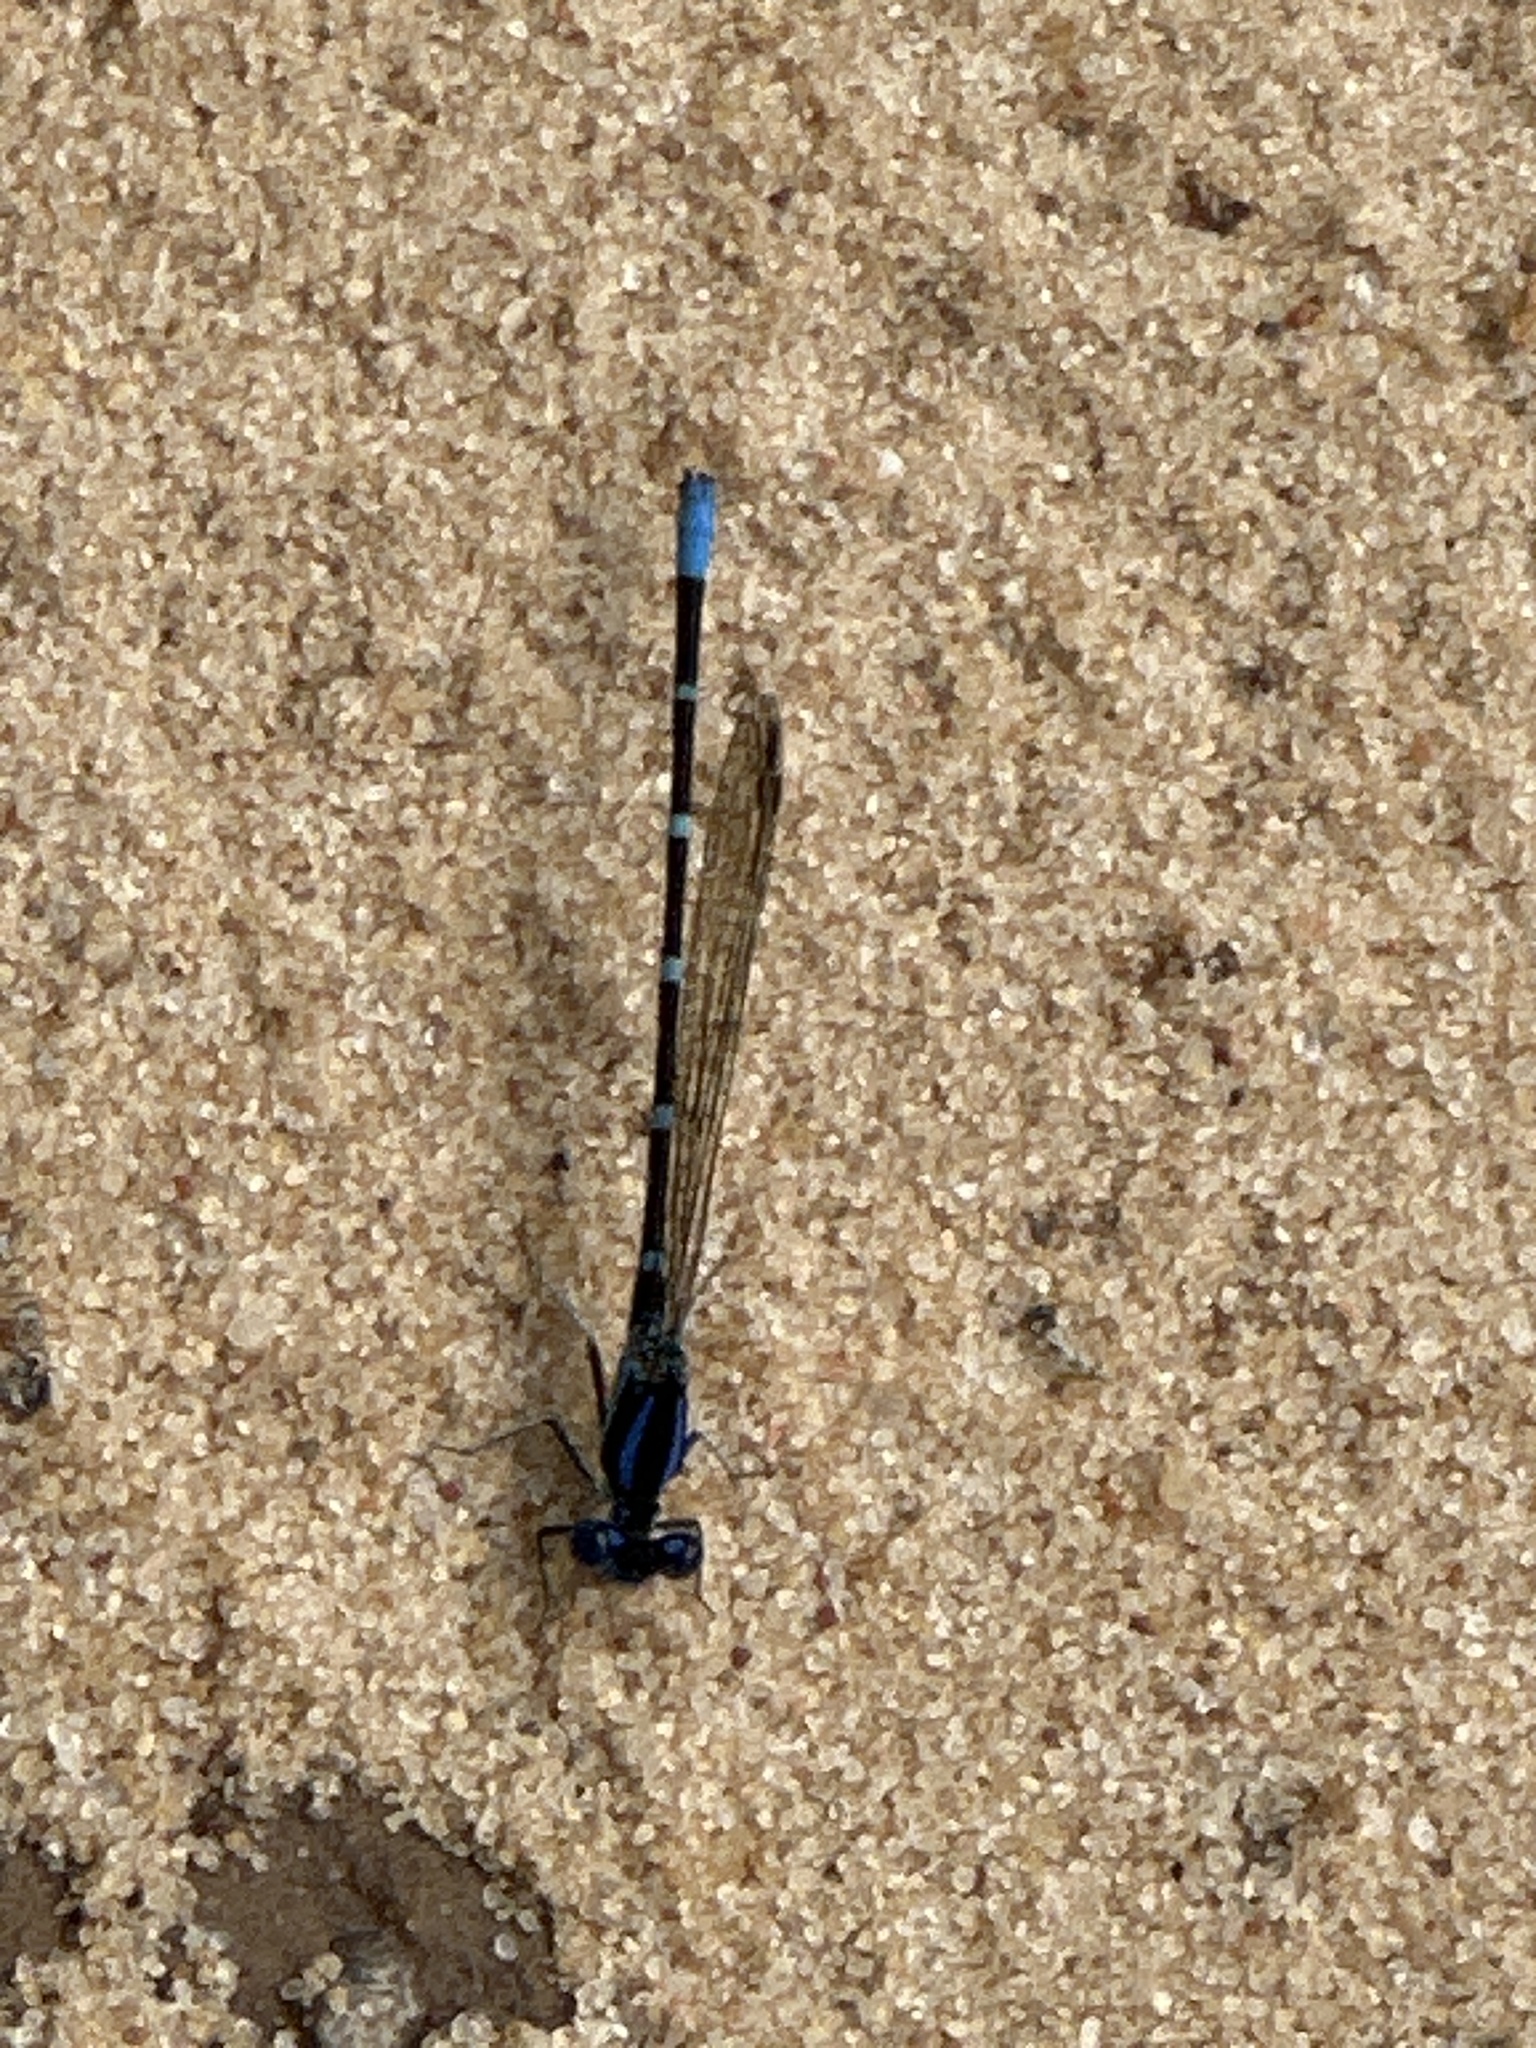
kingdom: Animalia
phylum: Arthropoda
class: Insecta
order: Odonata
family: Coenagrionidae
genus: Argia
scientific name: Argia sedula
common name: Blue-ringed dancer
